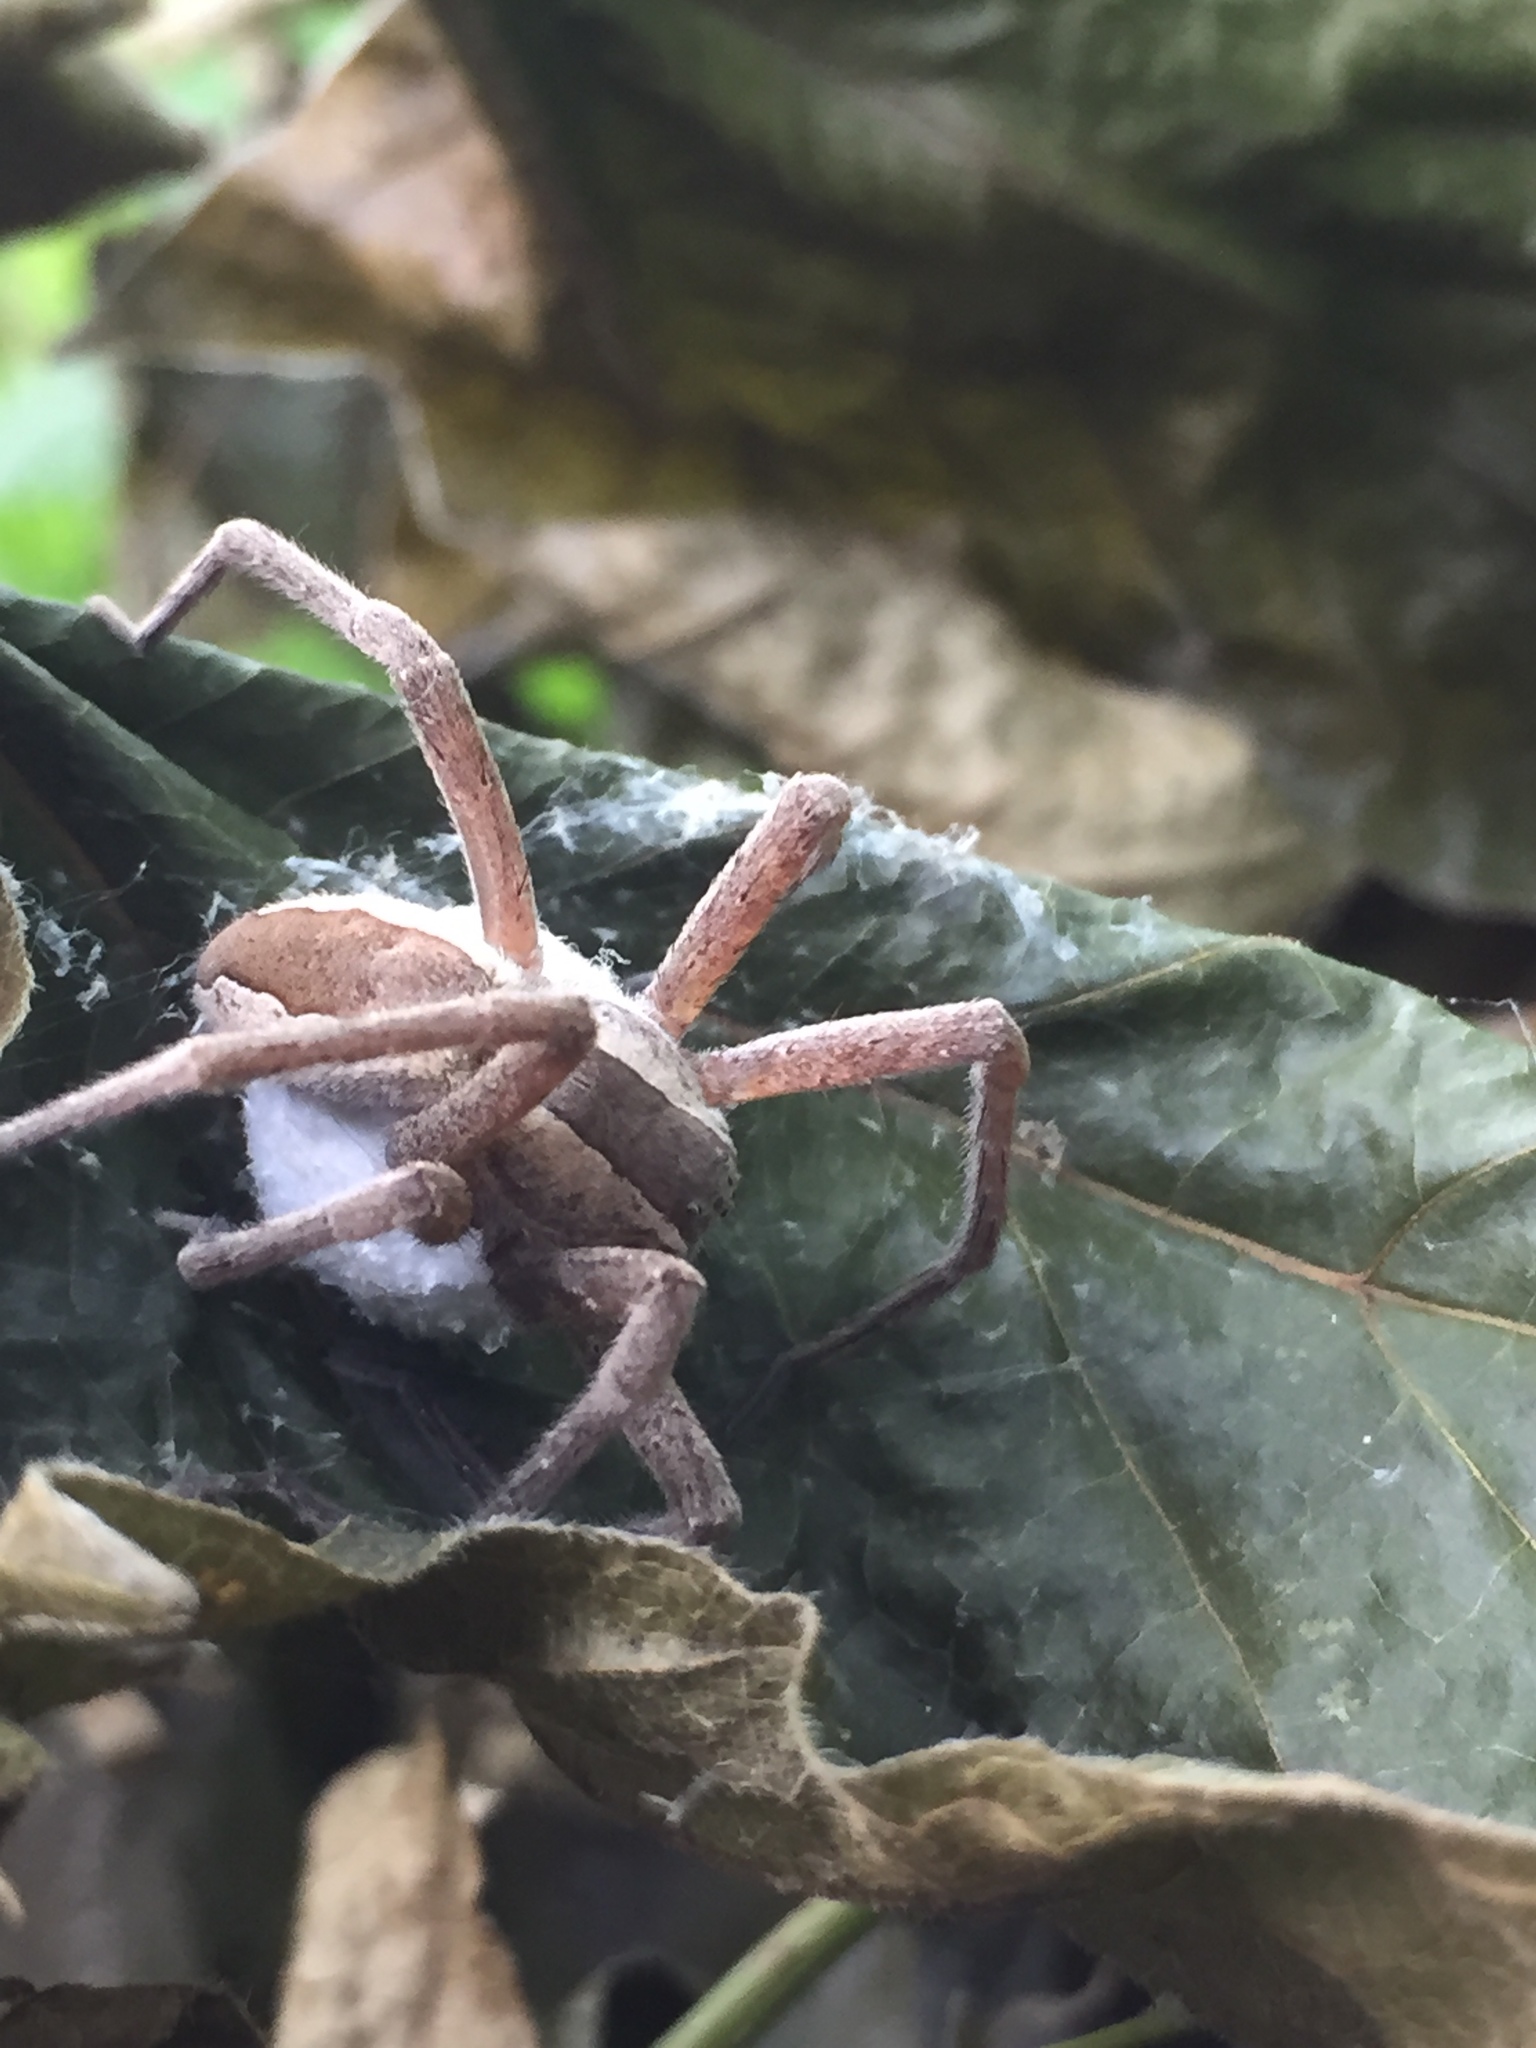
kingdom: Animalia
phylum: Arthropoda
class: Arachnida
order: Araneae
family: Pisauridae
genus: Pisaurina
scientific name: Pisaurina mira
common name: American nursery web spider
